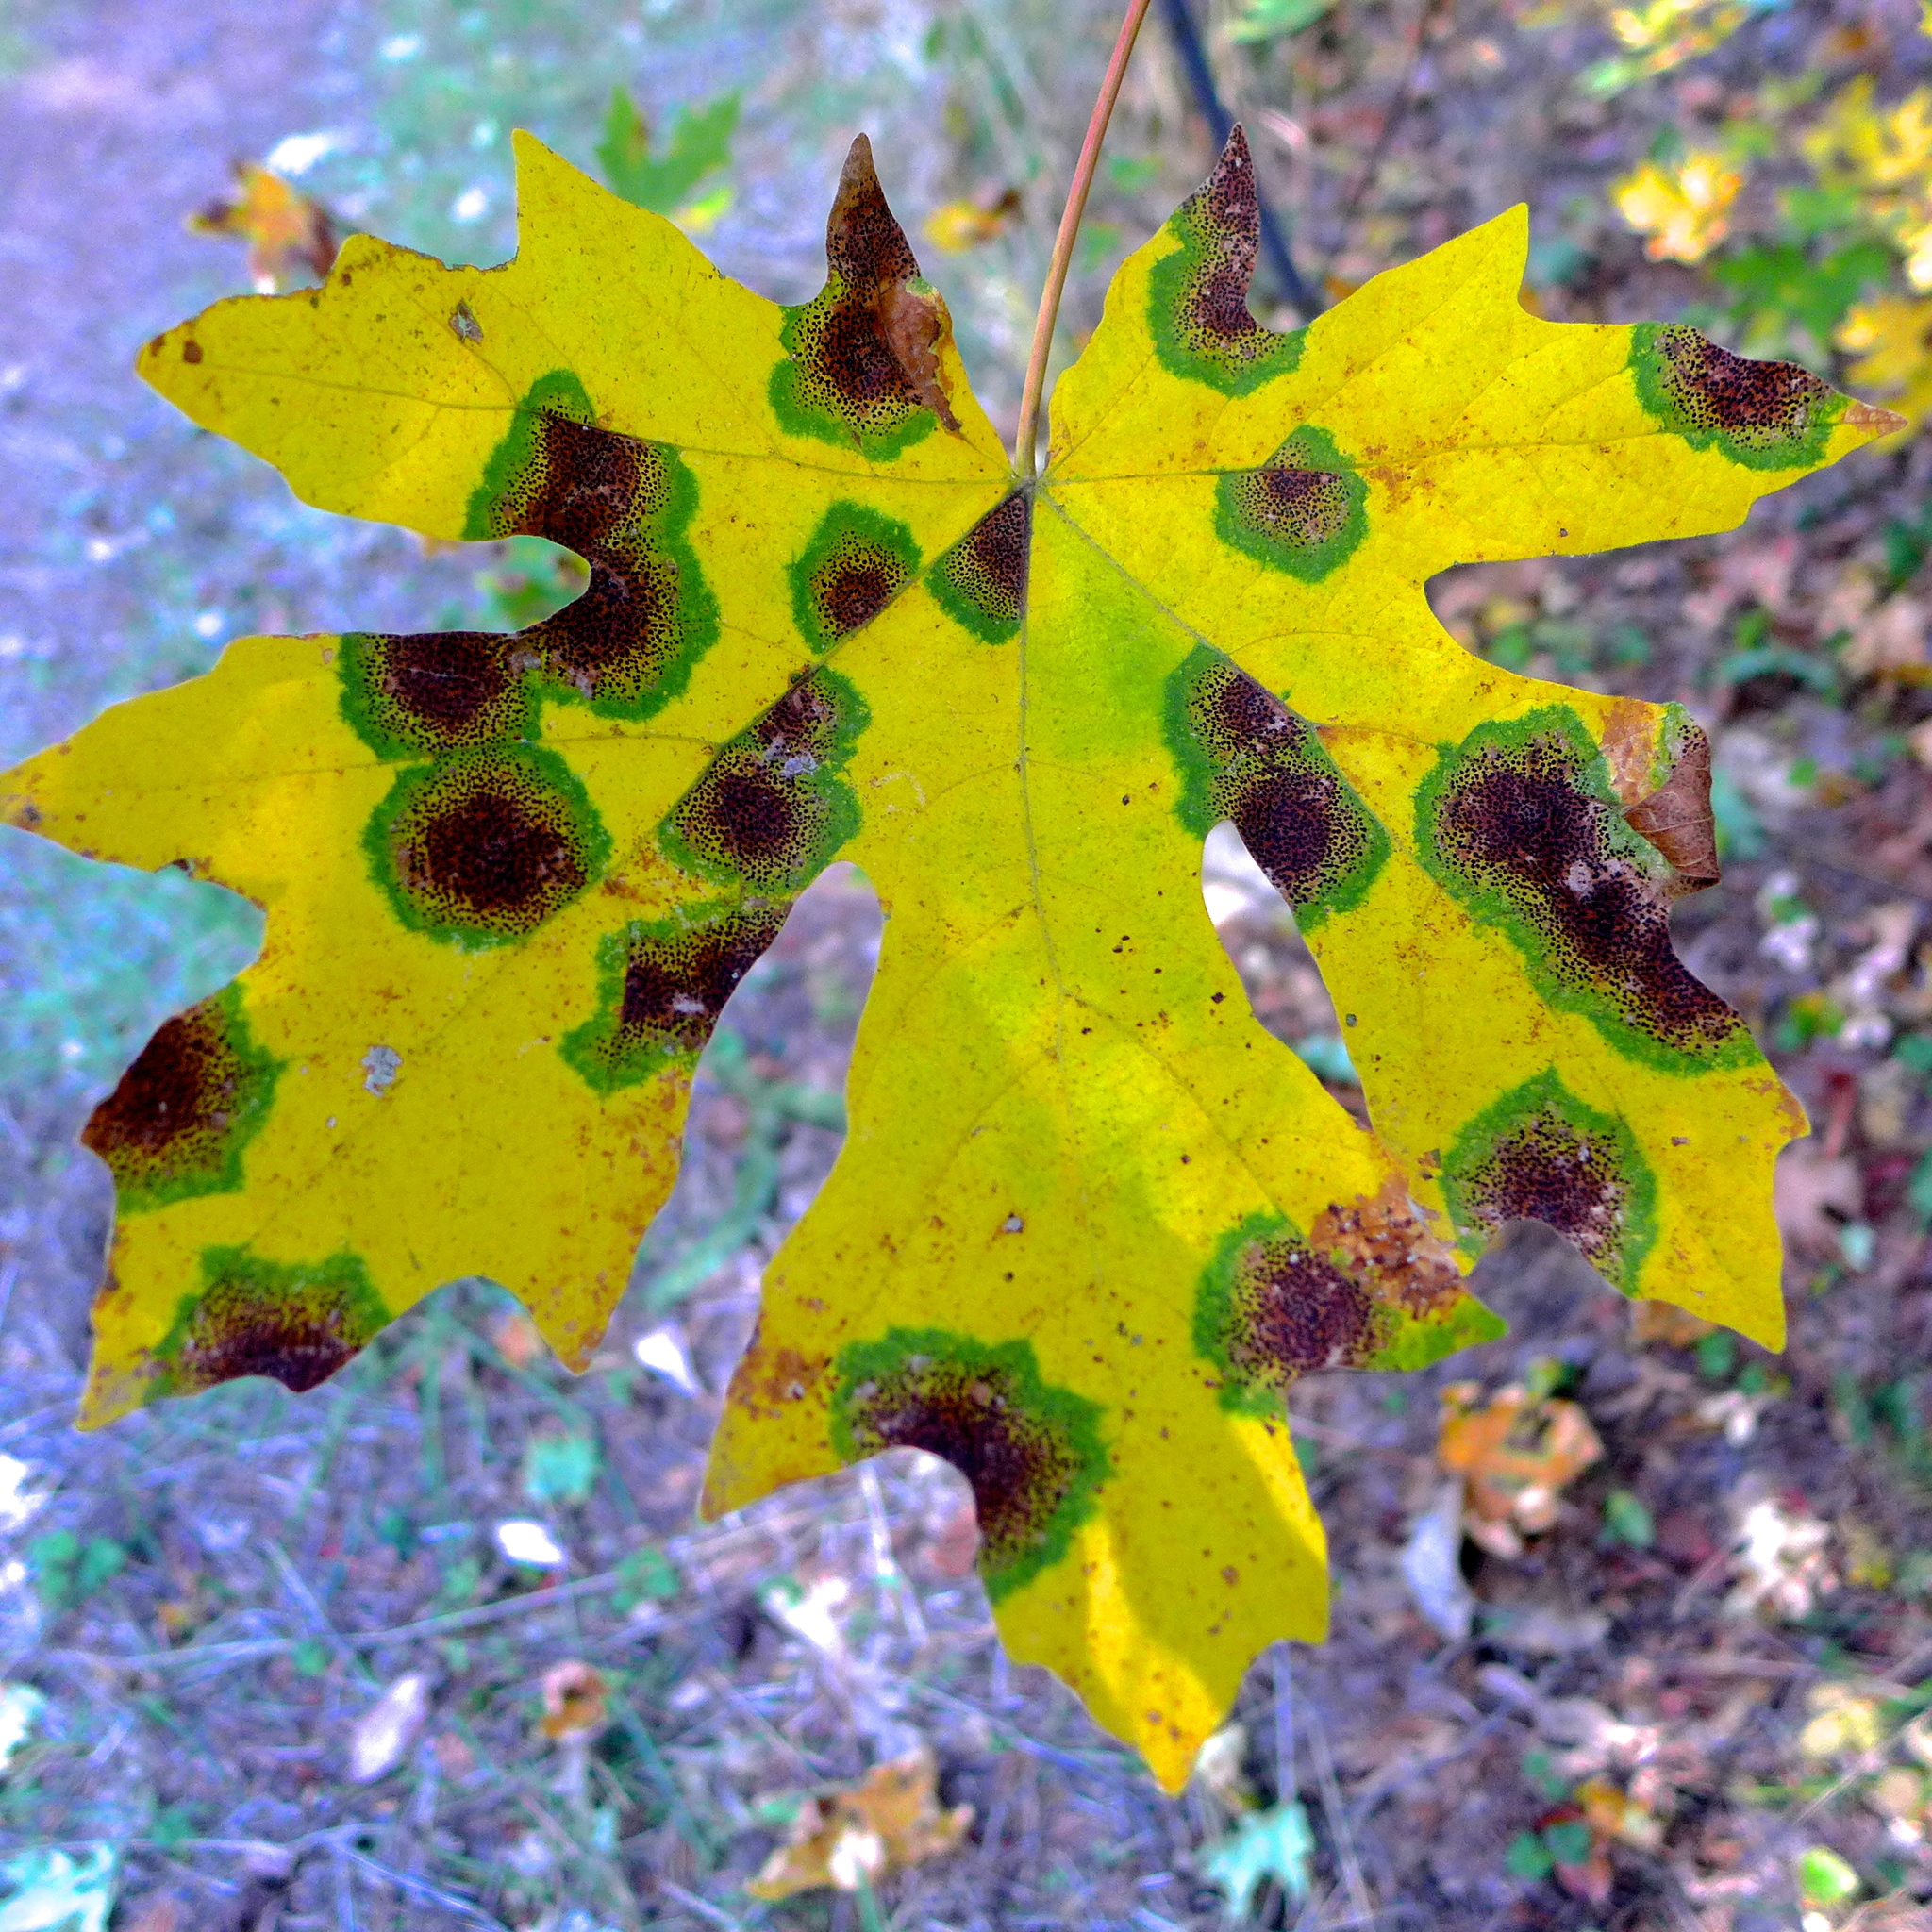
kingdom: Fungi
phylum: Ascomycota
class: Leotiomycetes
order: Rhytismatales
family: Rhytismataceae
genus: Rhytisma
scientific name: Rhytisma punctatum
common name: Speckled tar spot
